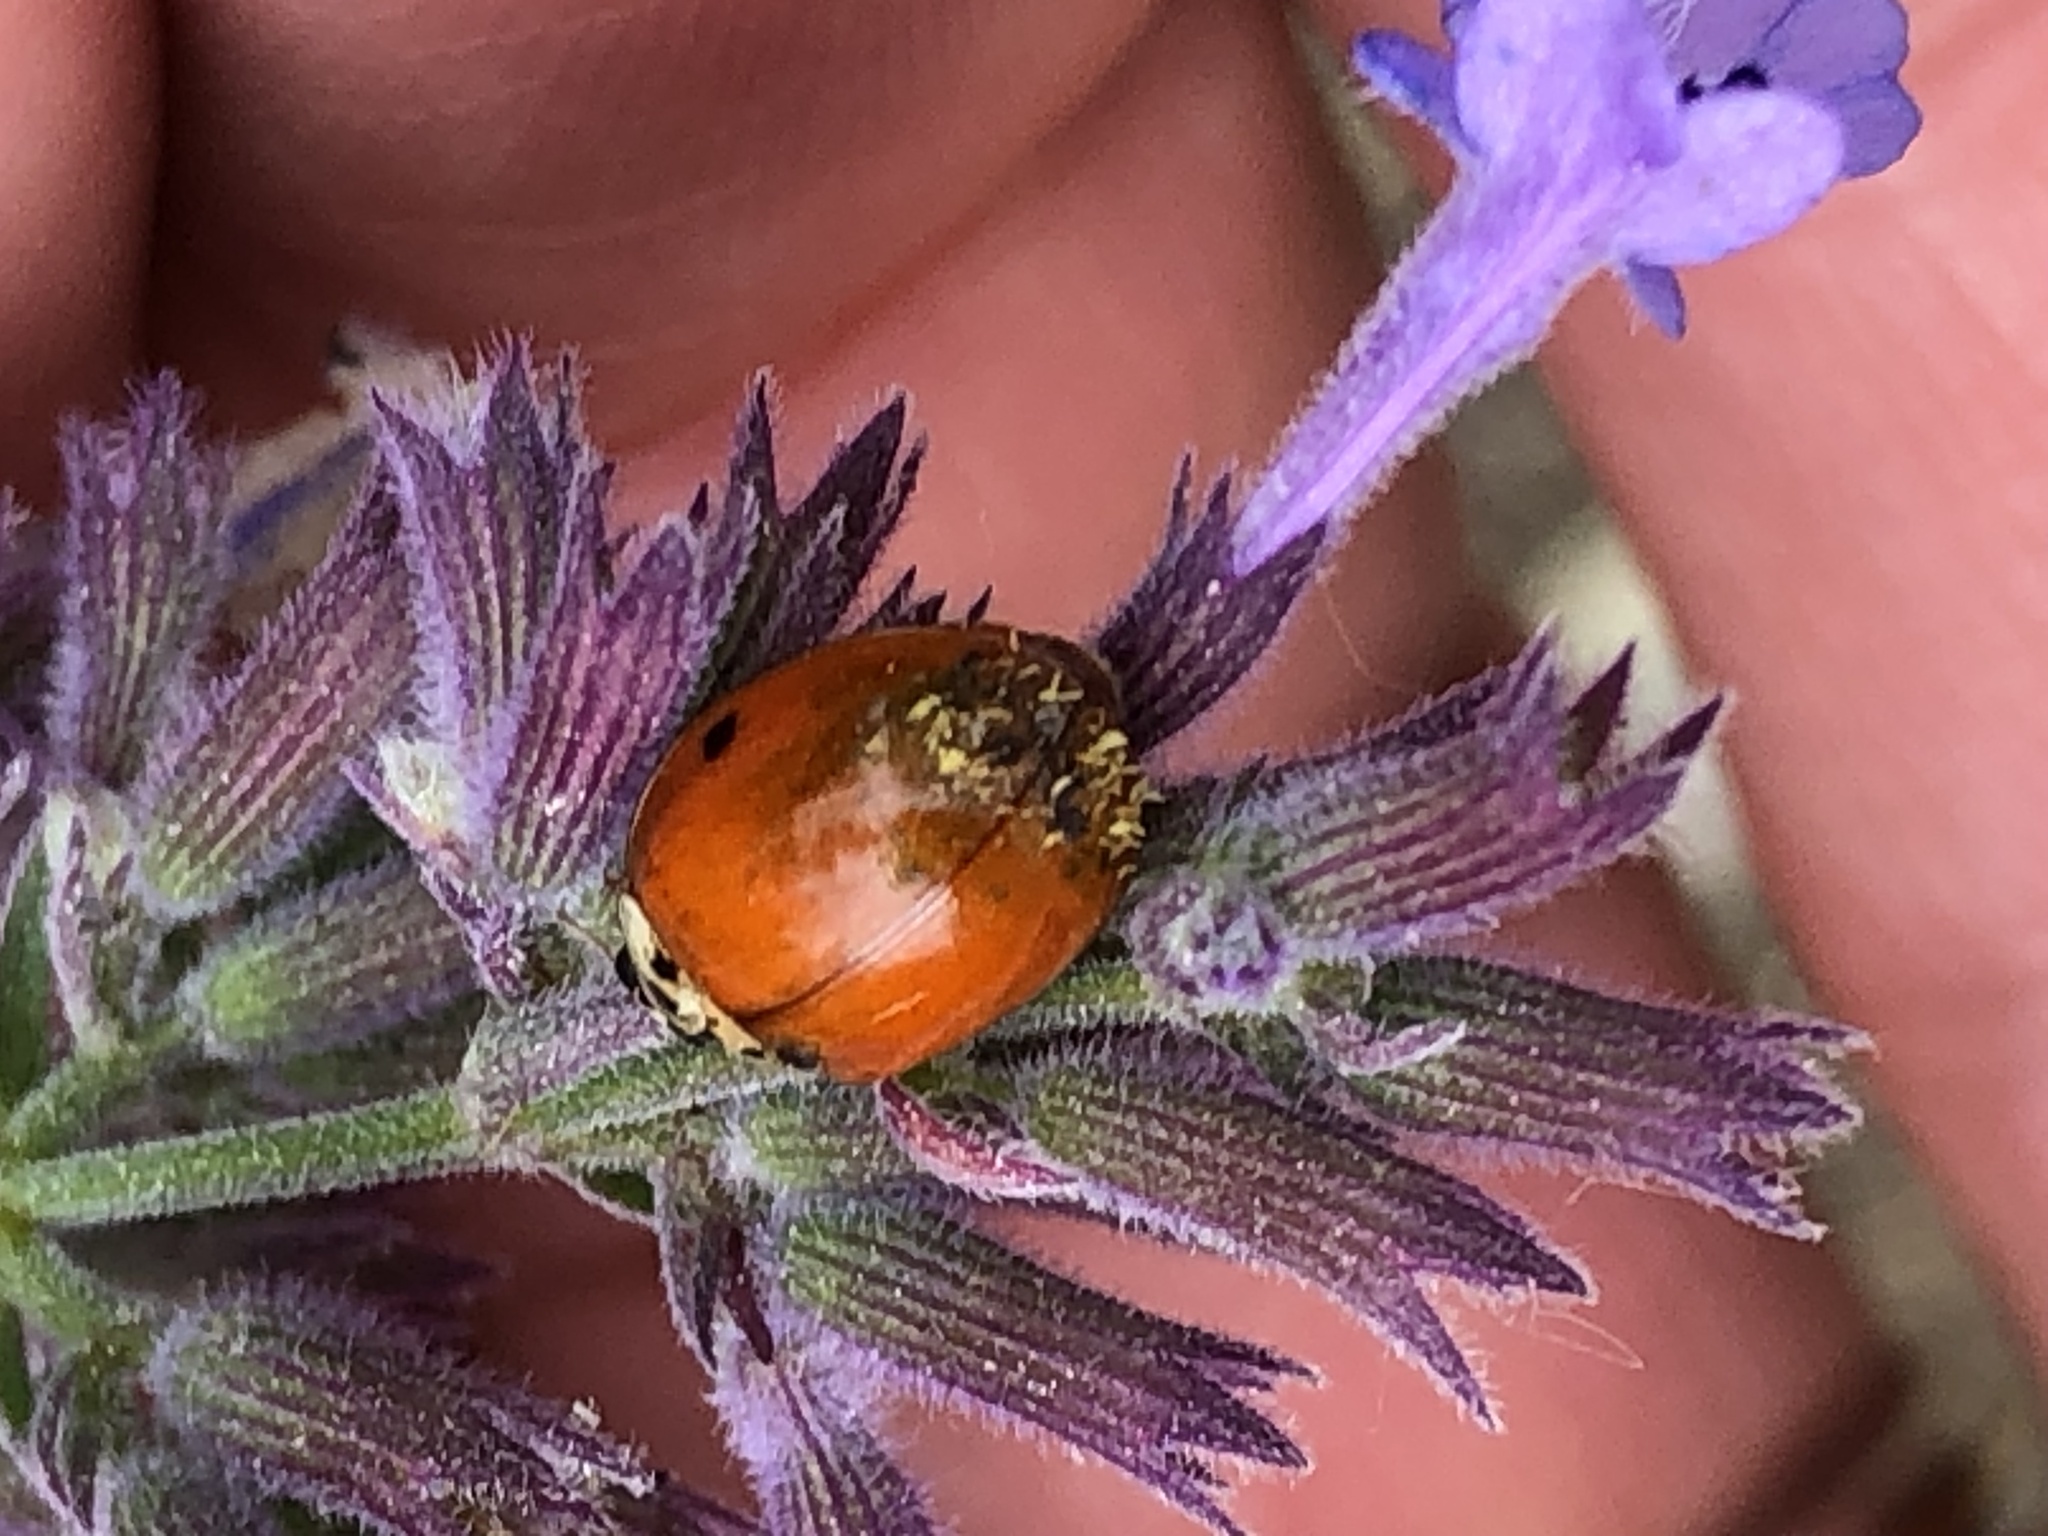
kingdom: Animalia
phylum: Arthropoda
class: Insecta
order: Coleoptera
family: Coccinellidae
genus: Harmonia
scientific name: Harmonia axyridis
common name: Harlequin ladybird
